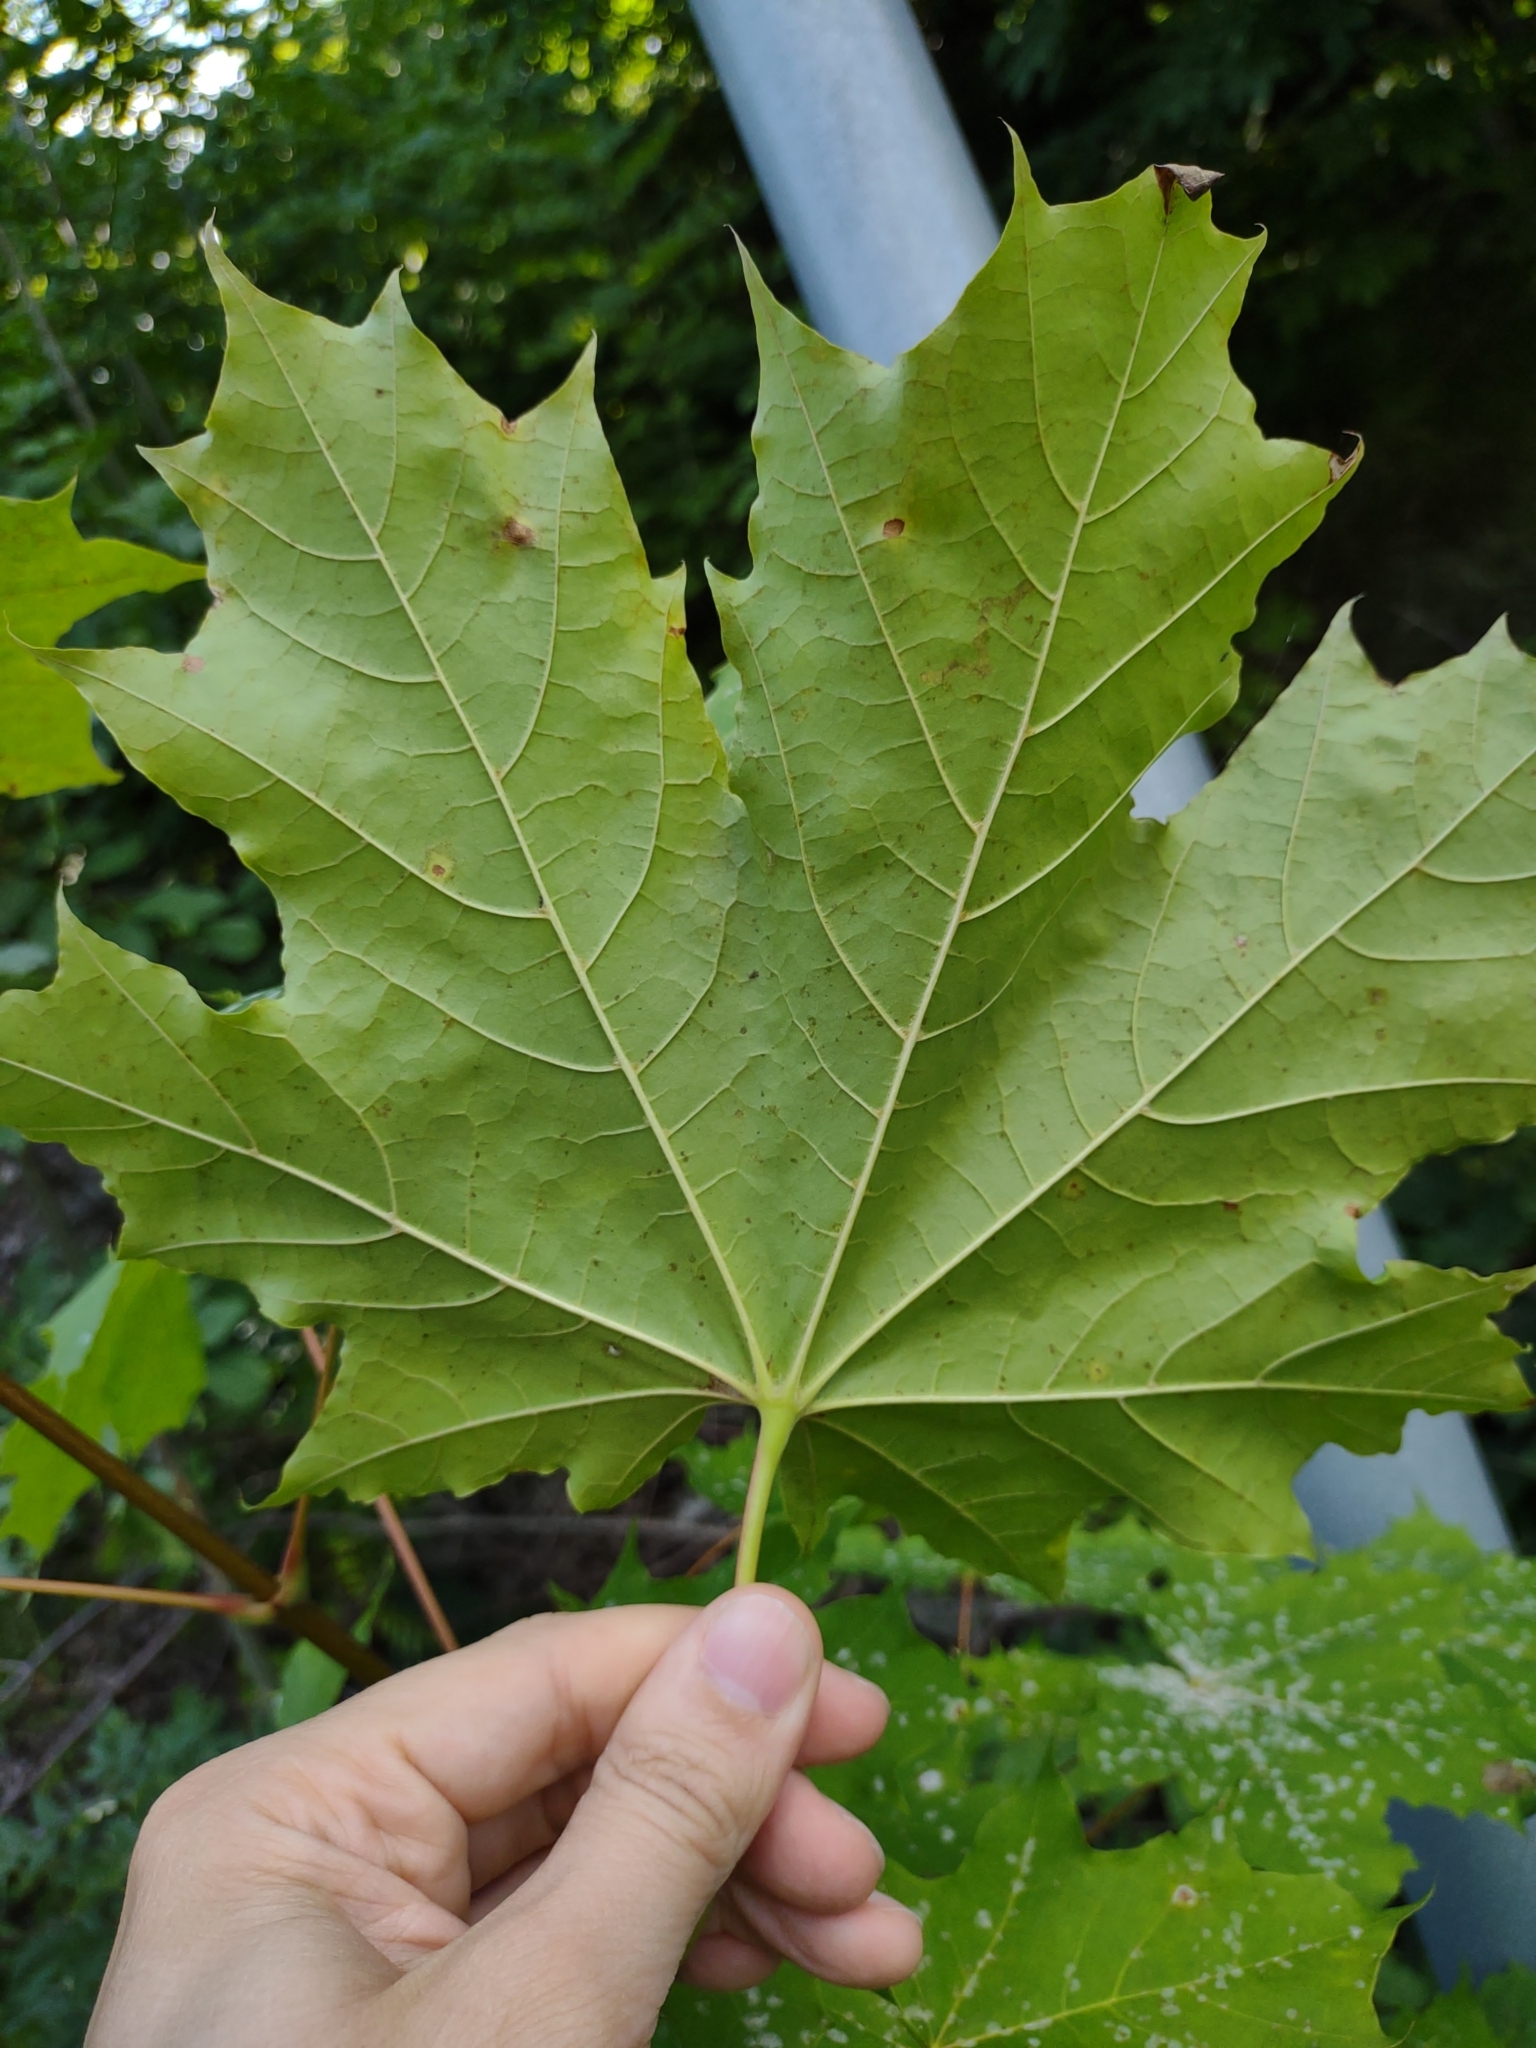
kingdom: Plantae
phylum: Tracheophyta
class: Magnoliopsida
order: Sapindales
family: Sapindaceae
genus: Acer
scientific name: Acer platanoides
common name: Norway maple
